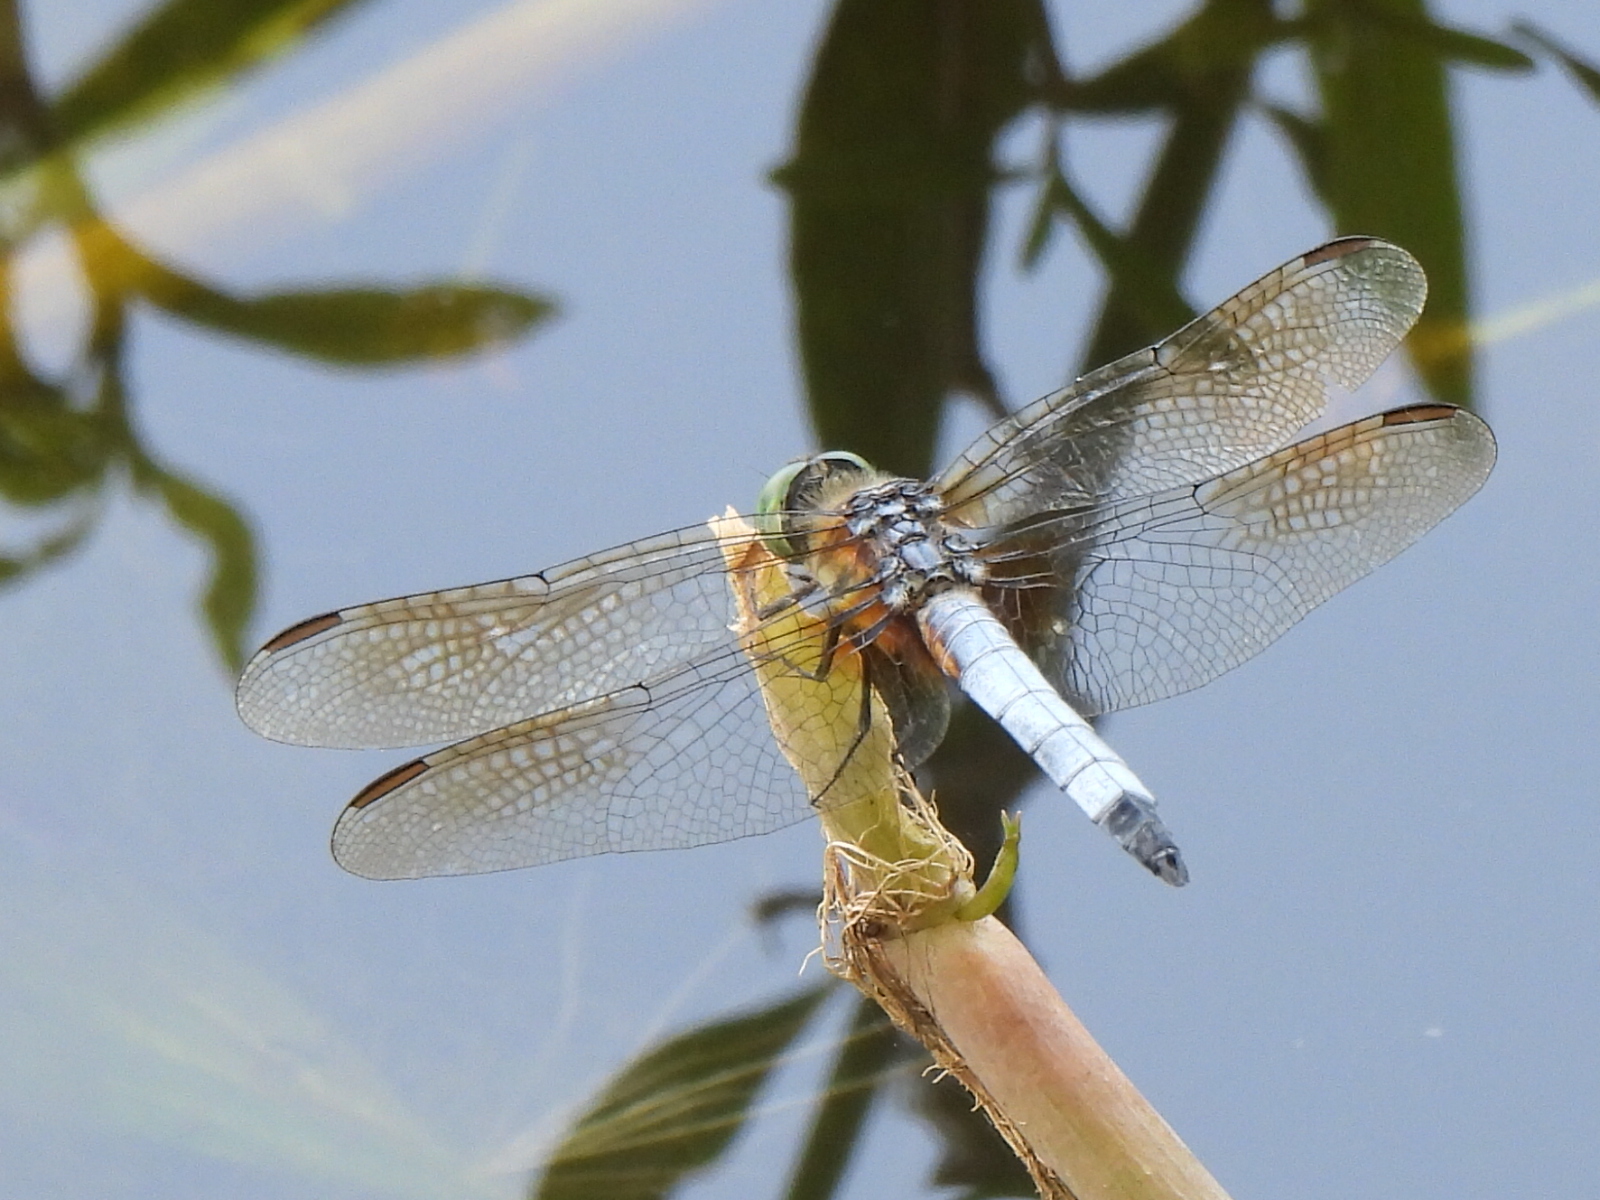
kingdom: Animalia
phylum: Arthropoda
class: Insecta
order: Odonata
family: Libellulidae
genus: Pachydiplax
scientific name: Pachydiplax longipennis
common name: Blue dasher
